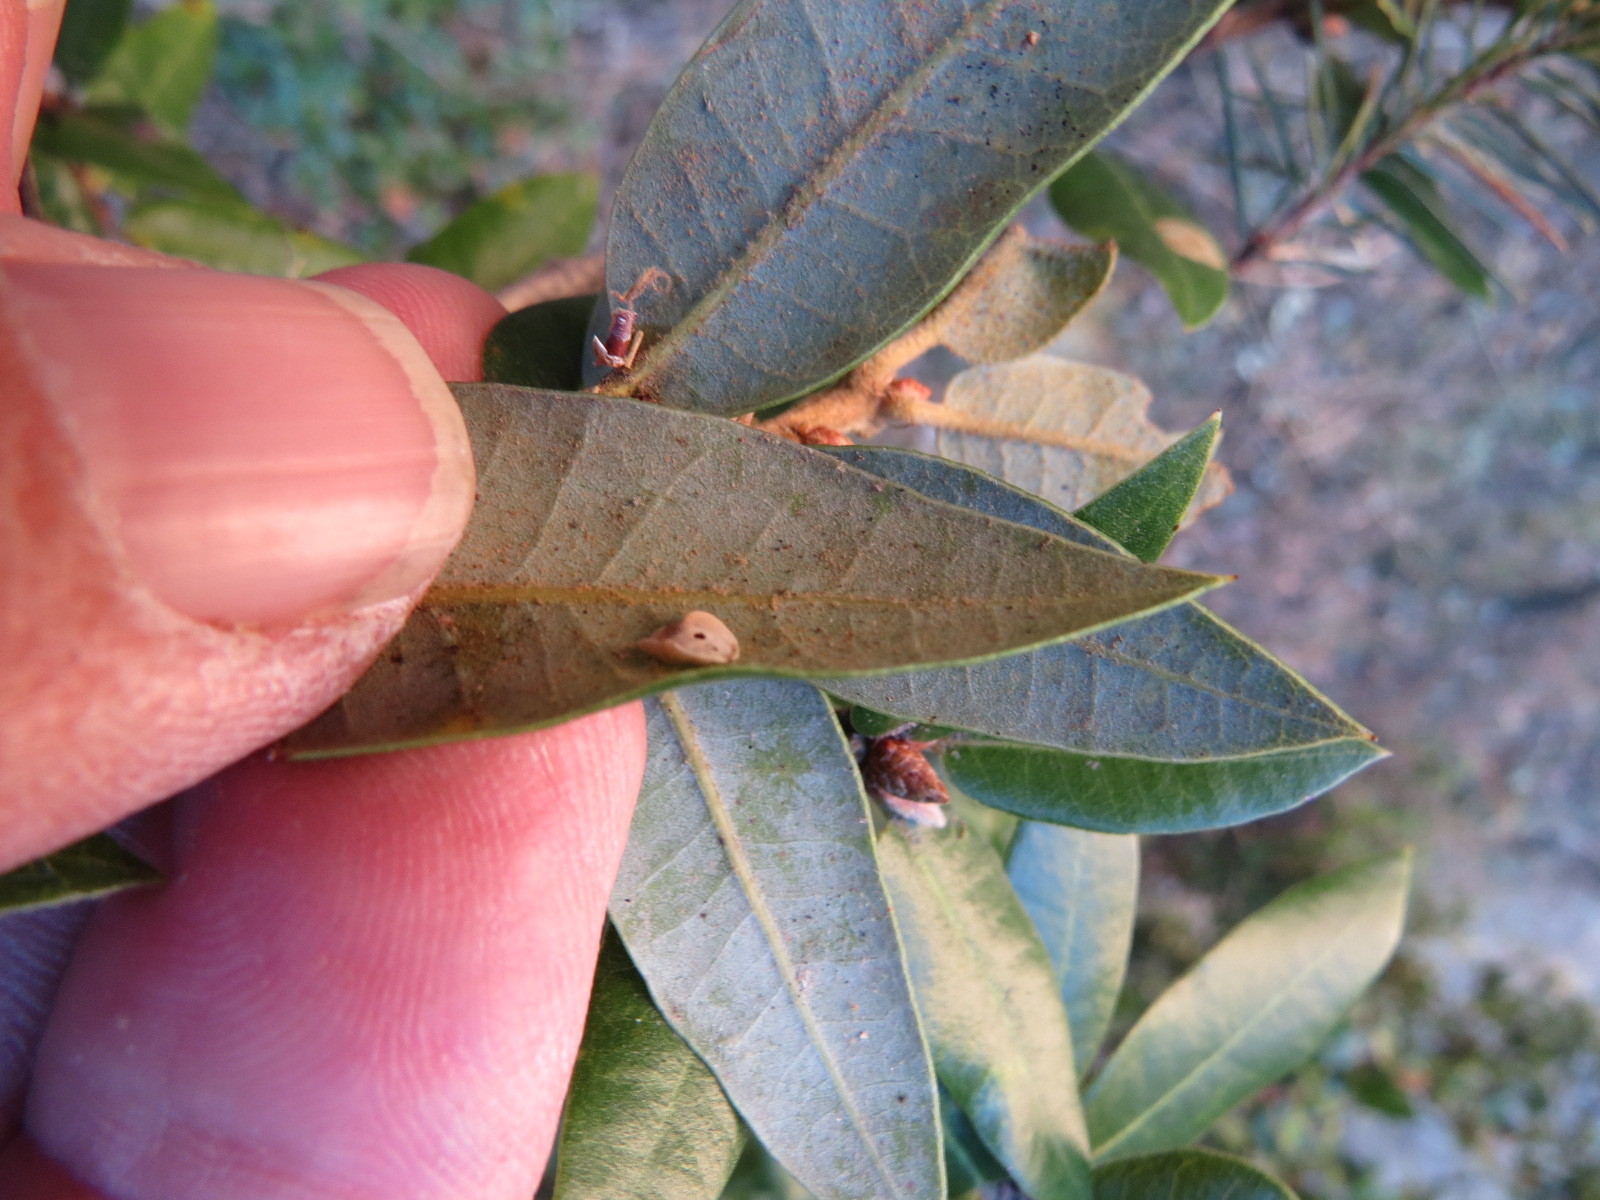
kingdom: Animalia
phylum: Arthropoda
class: Insecta
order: Hymenoptera
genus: Paracraspis
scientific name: Paracraspis
